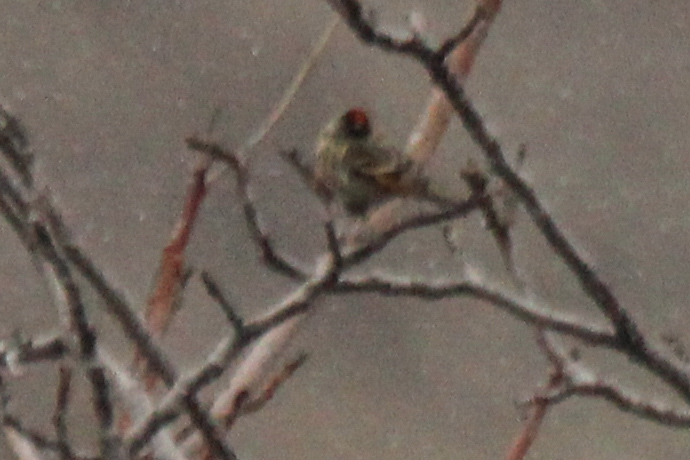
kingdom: Animalia
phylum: Chordata
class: Aves
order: Passeriformes
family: Fringillidae
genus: Serinus
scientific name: Serinus pusillus
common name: Red-fronted serin
